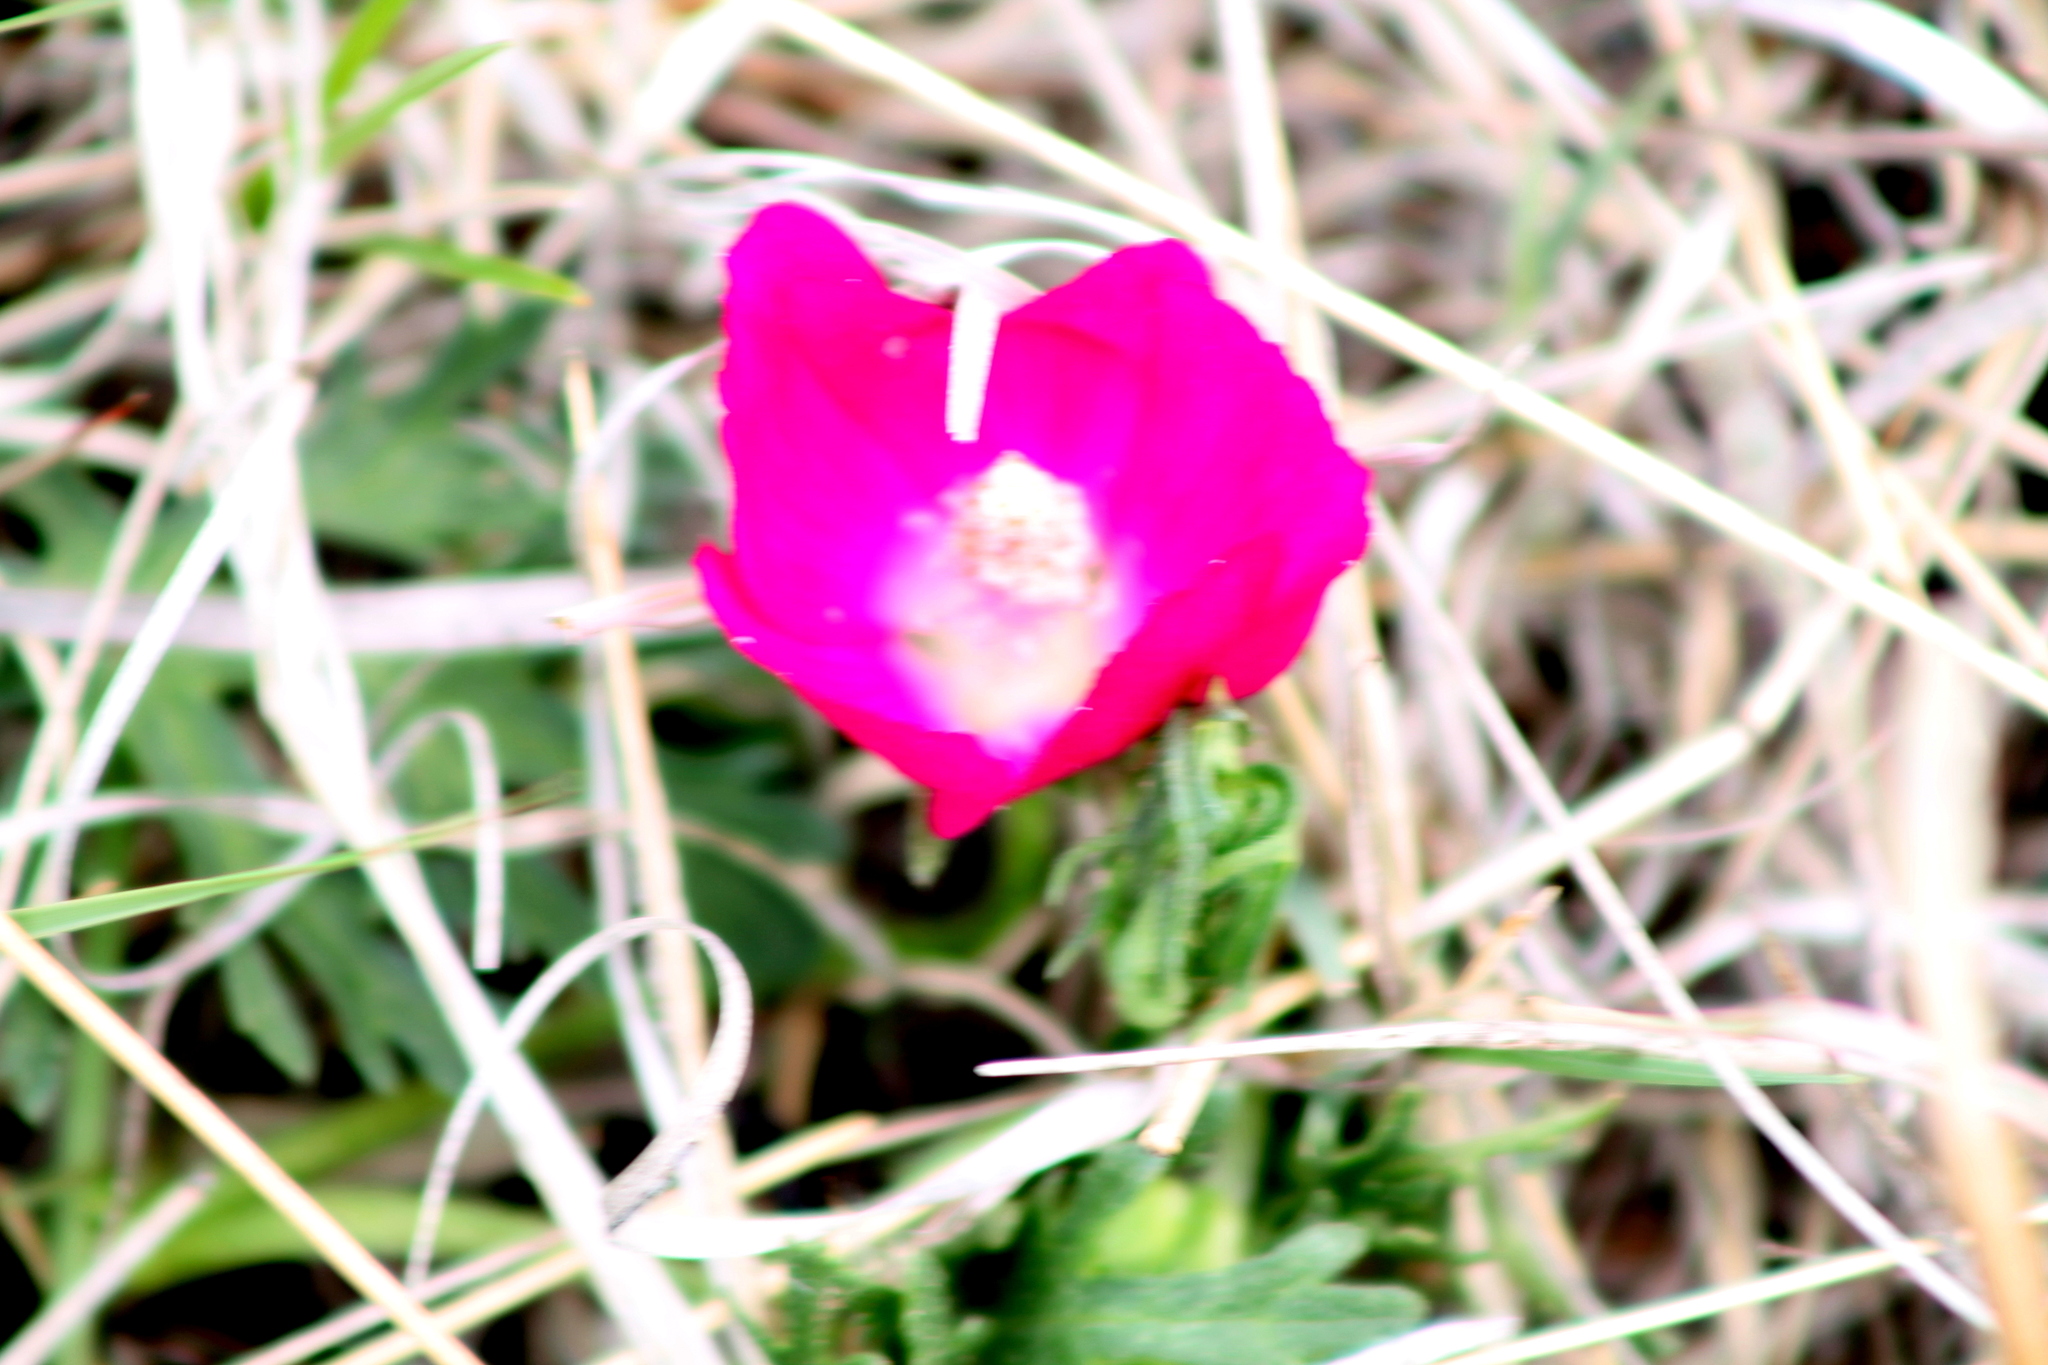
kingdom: Plantae
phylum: Tracheophyta
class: Magnoliopsida
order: Malvales
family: Malvaceae
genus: Callirhoe
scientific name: Callirhoe involucrata
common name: Purple poppy-mallow
